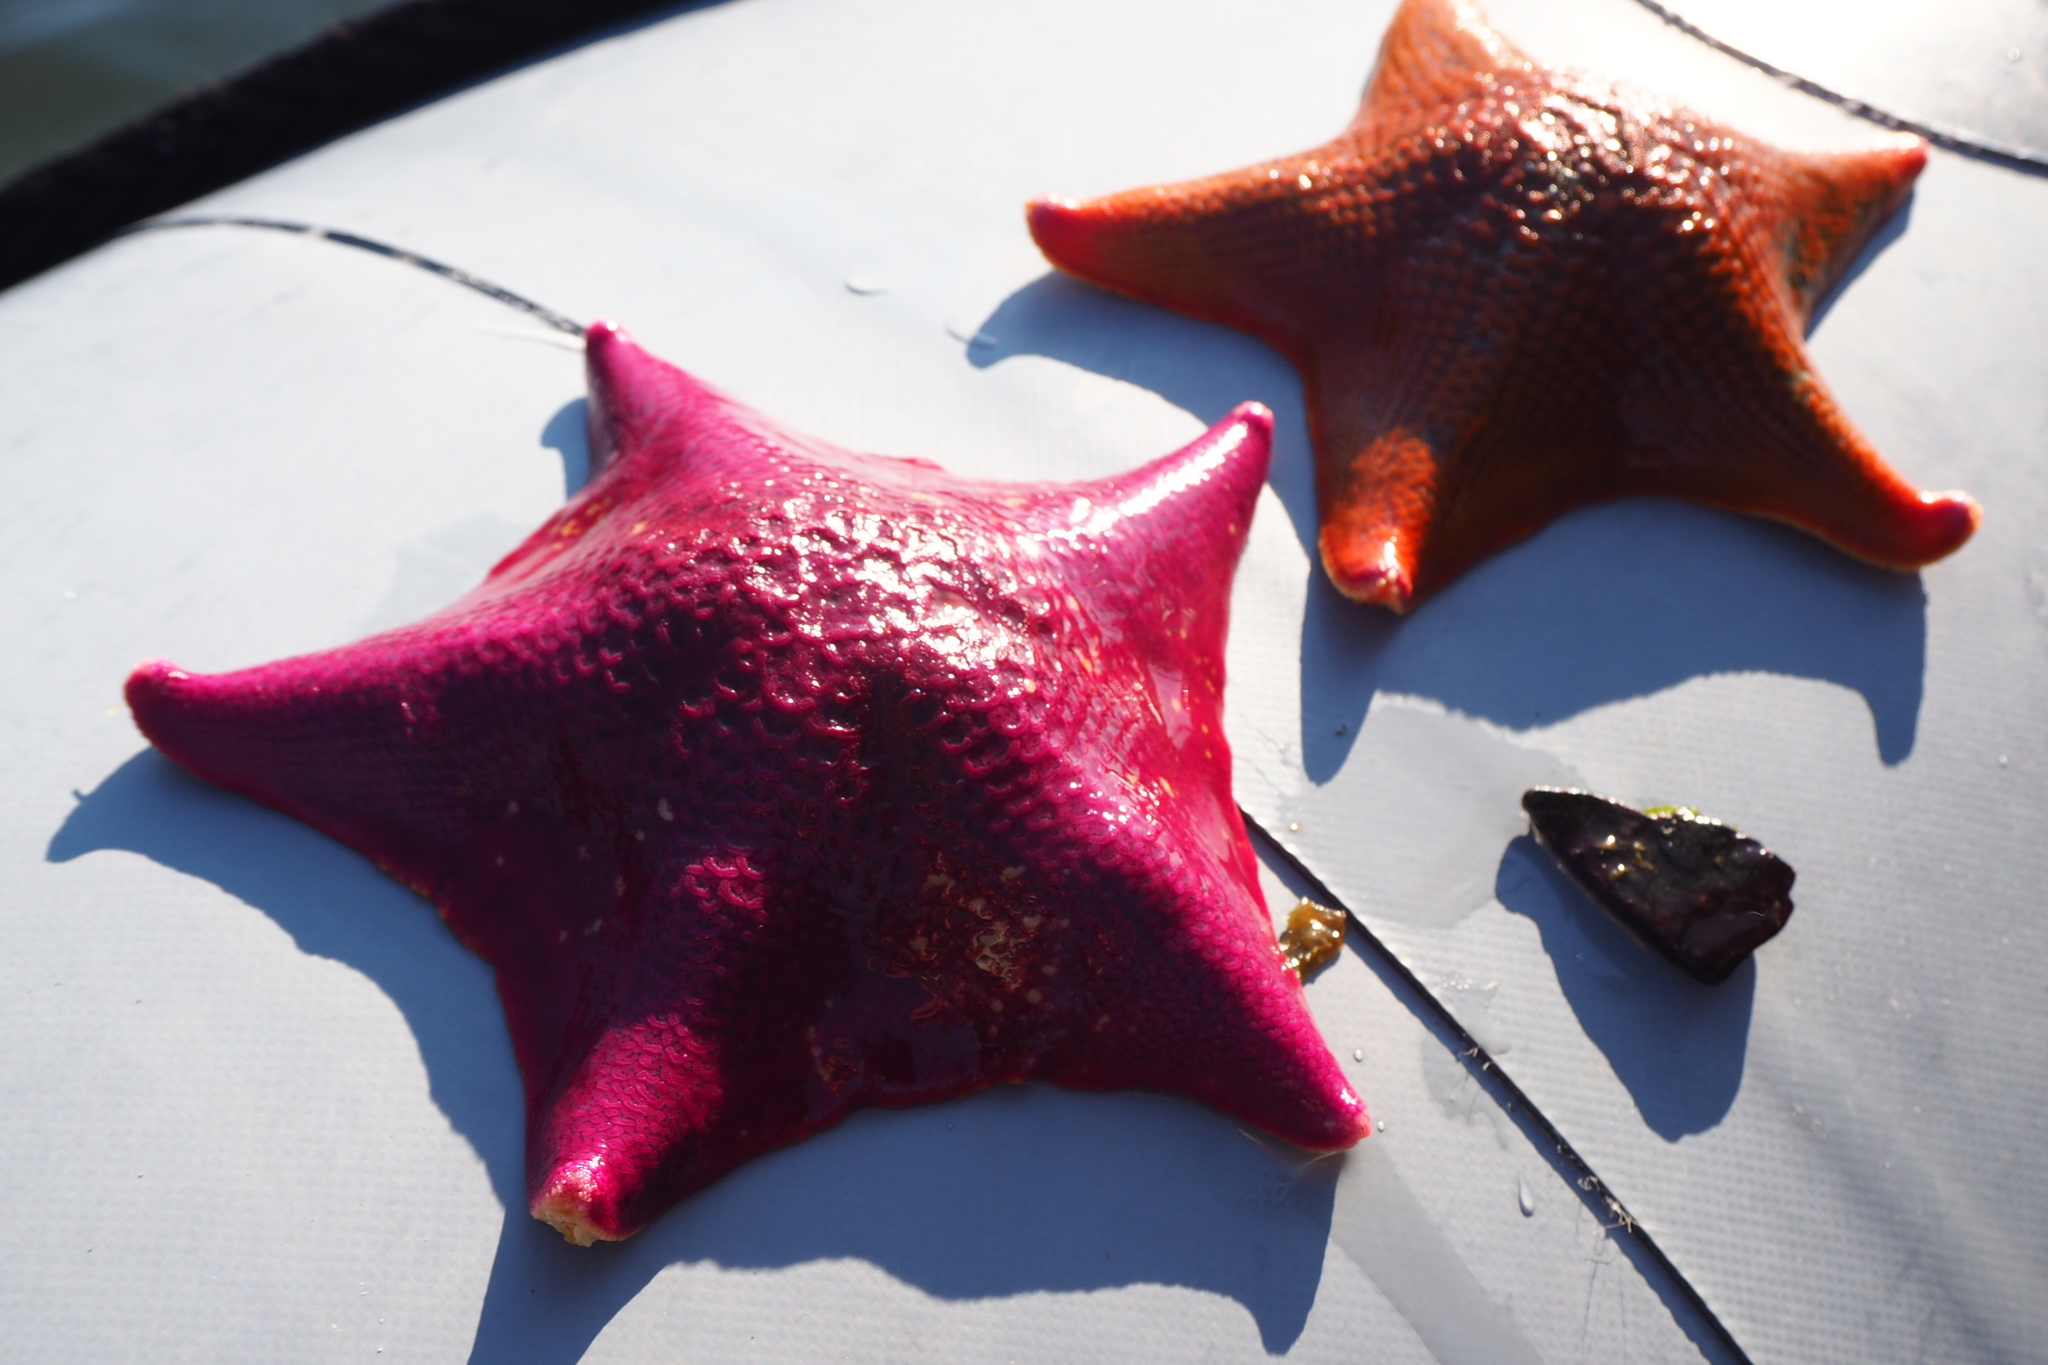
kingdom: Animalia
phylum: Echinodermata
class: Asteroidea
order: Valvatida
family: Asterinidae
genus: Patiria
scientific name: Patiria miniata
